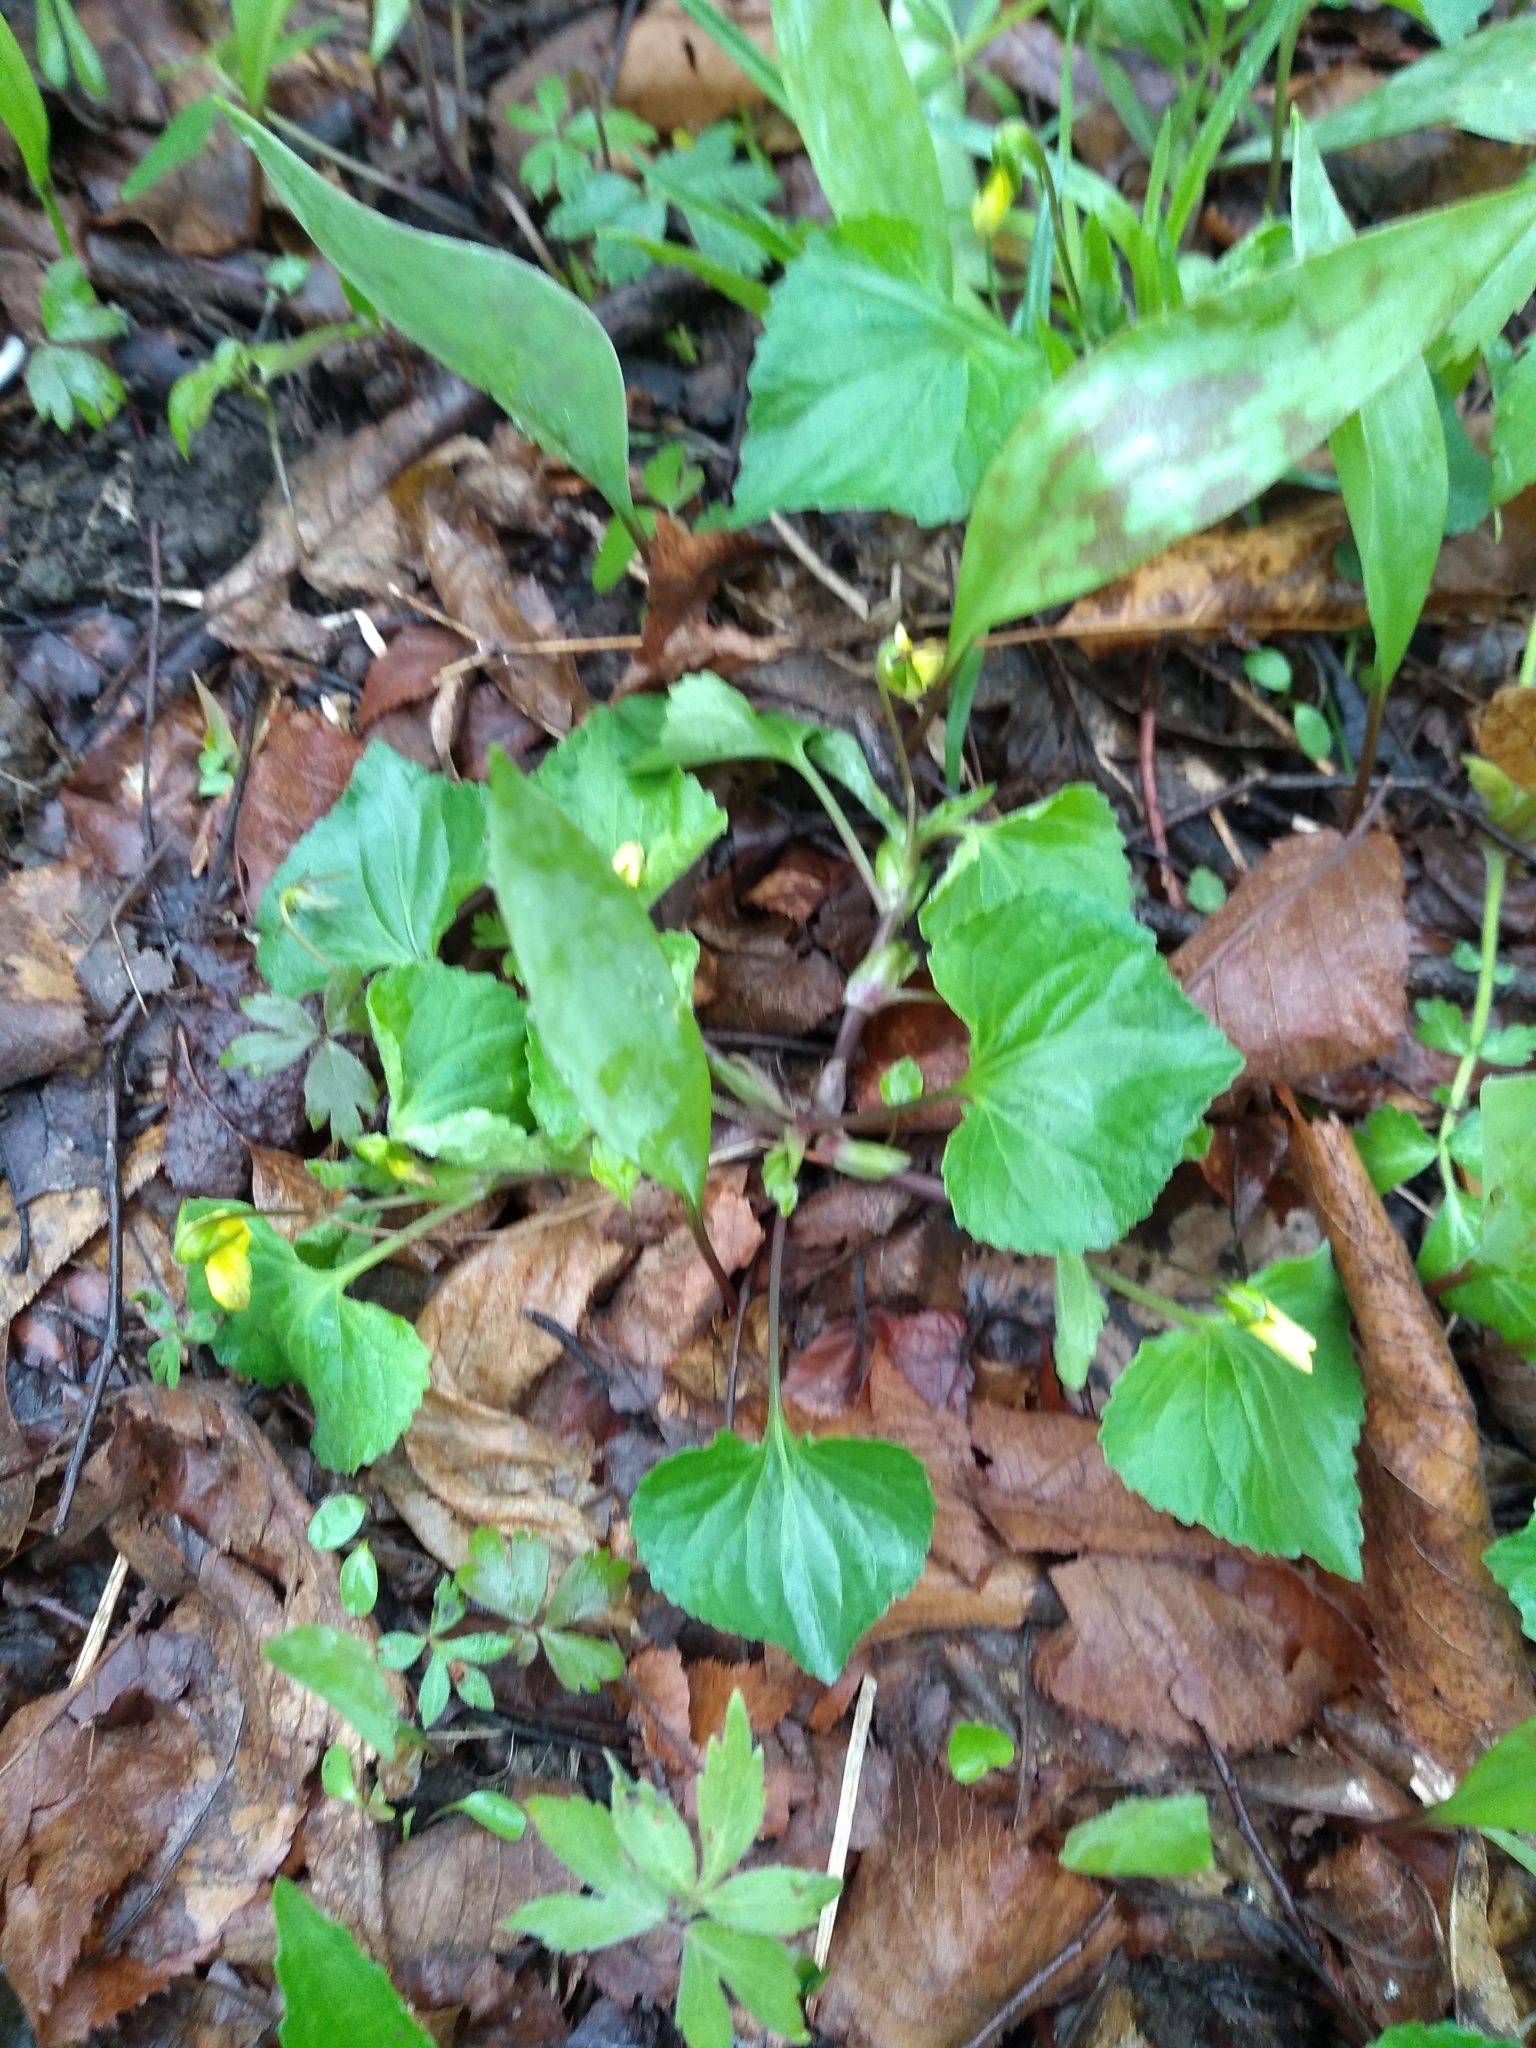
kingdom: Plantae
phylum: Tracheophyta
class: Magnoliopsida
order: Malpighiales
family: Violaceae
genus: Viola
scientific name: Viola eriocarpa
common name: Smooth yellow violet
